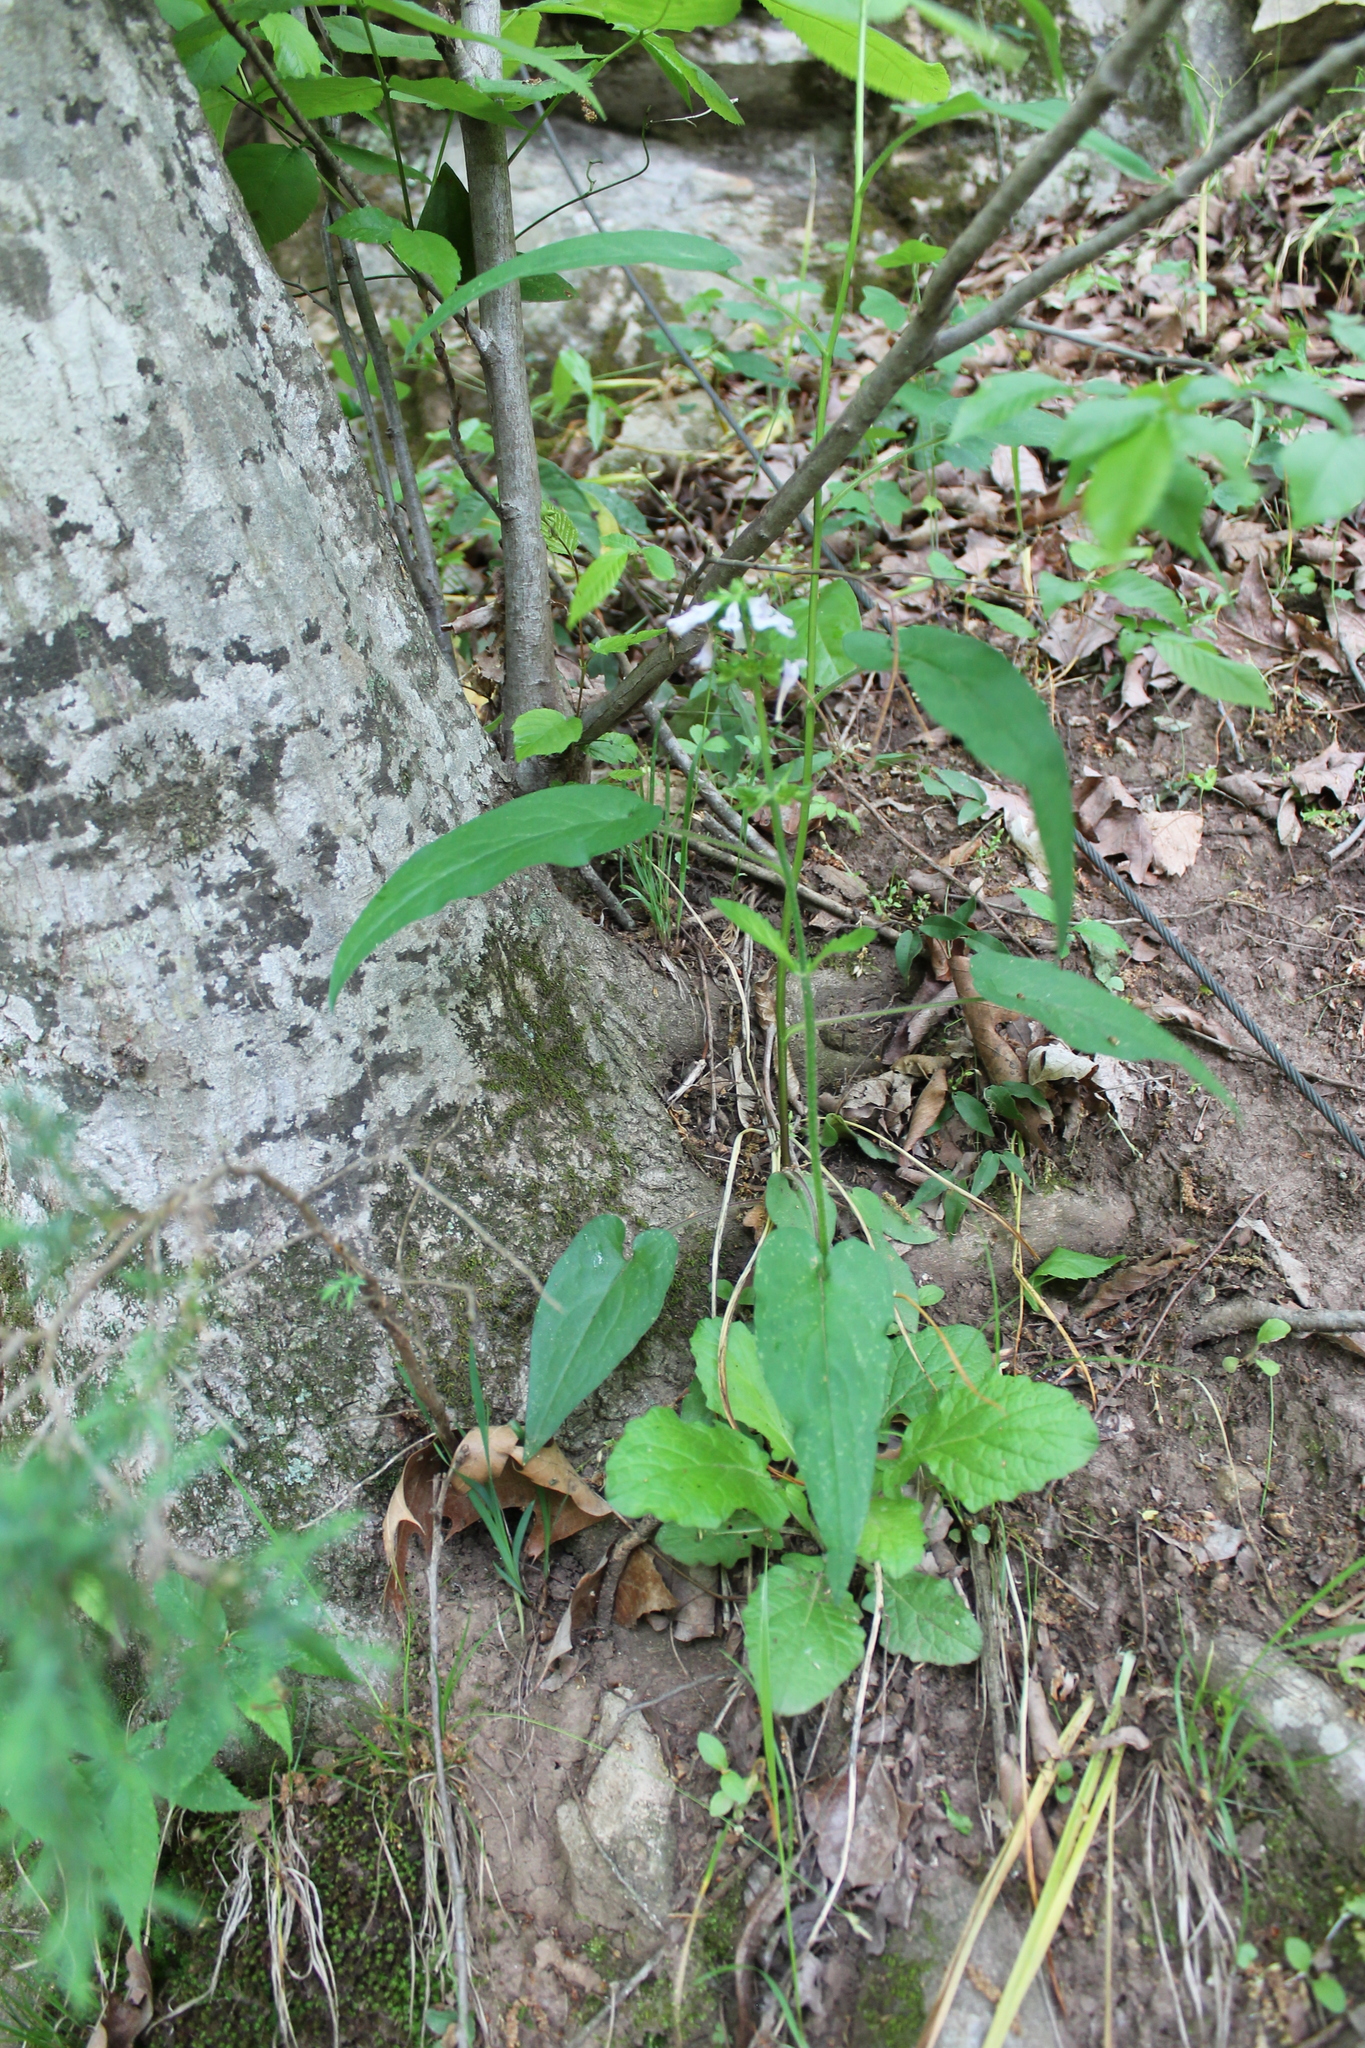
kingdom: Plantae
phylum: Tracheophyta
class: Magnoliopsida
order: Lamiales
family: Lamiaceae
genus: Salvia
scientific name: Salvia lyrata
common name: Cancerweed
